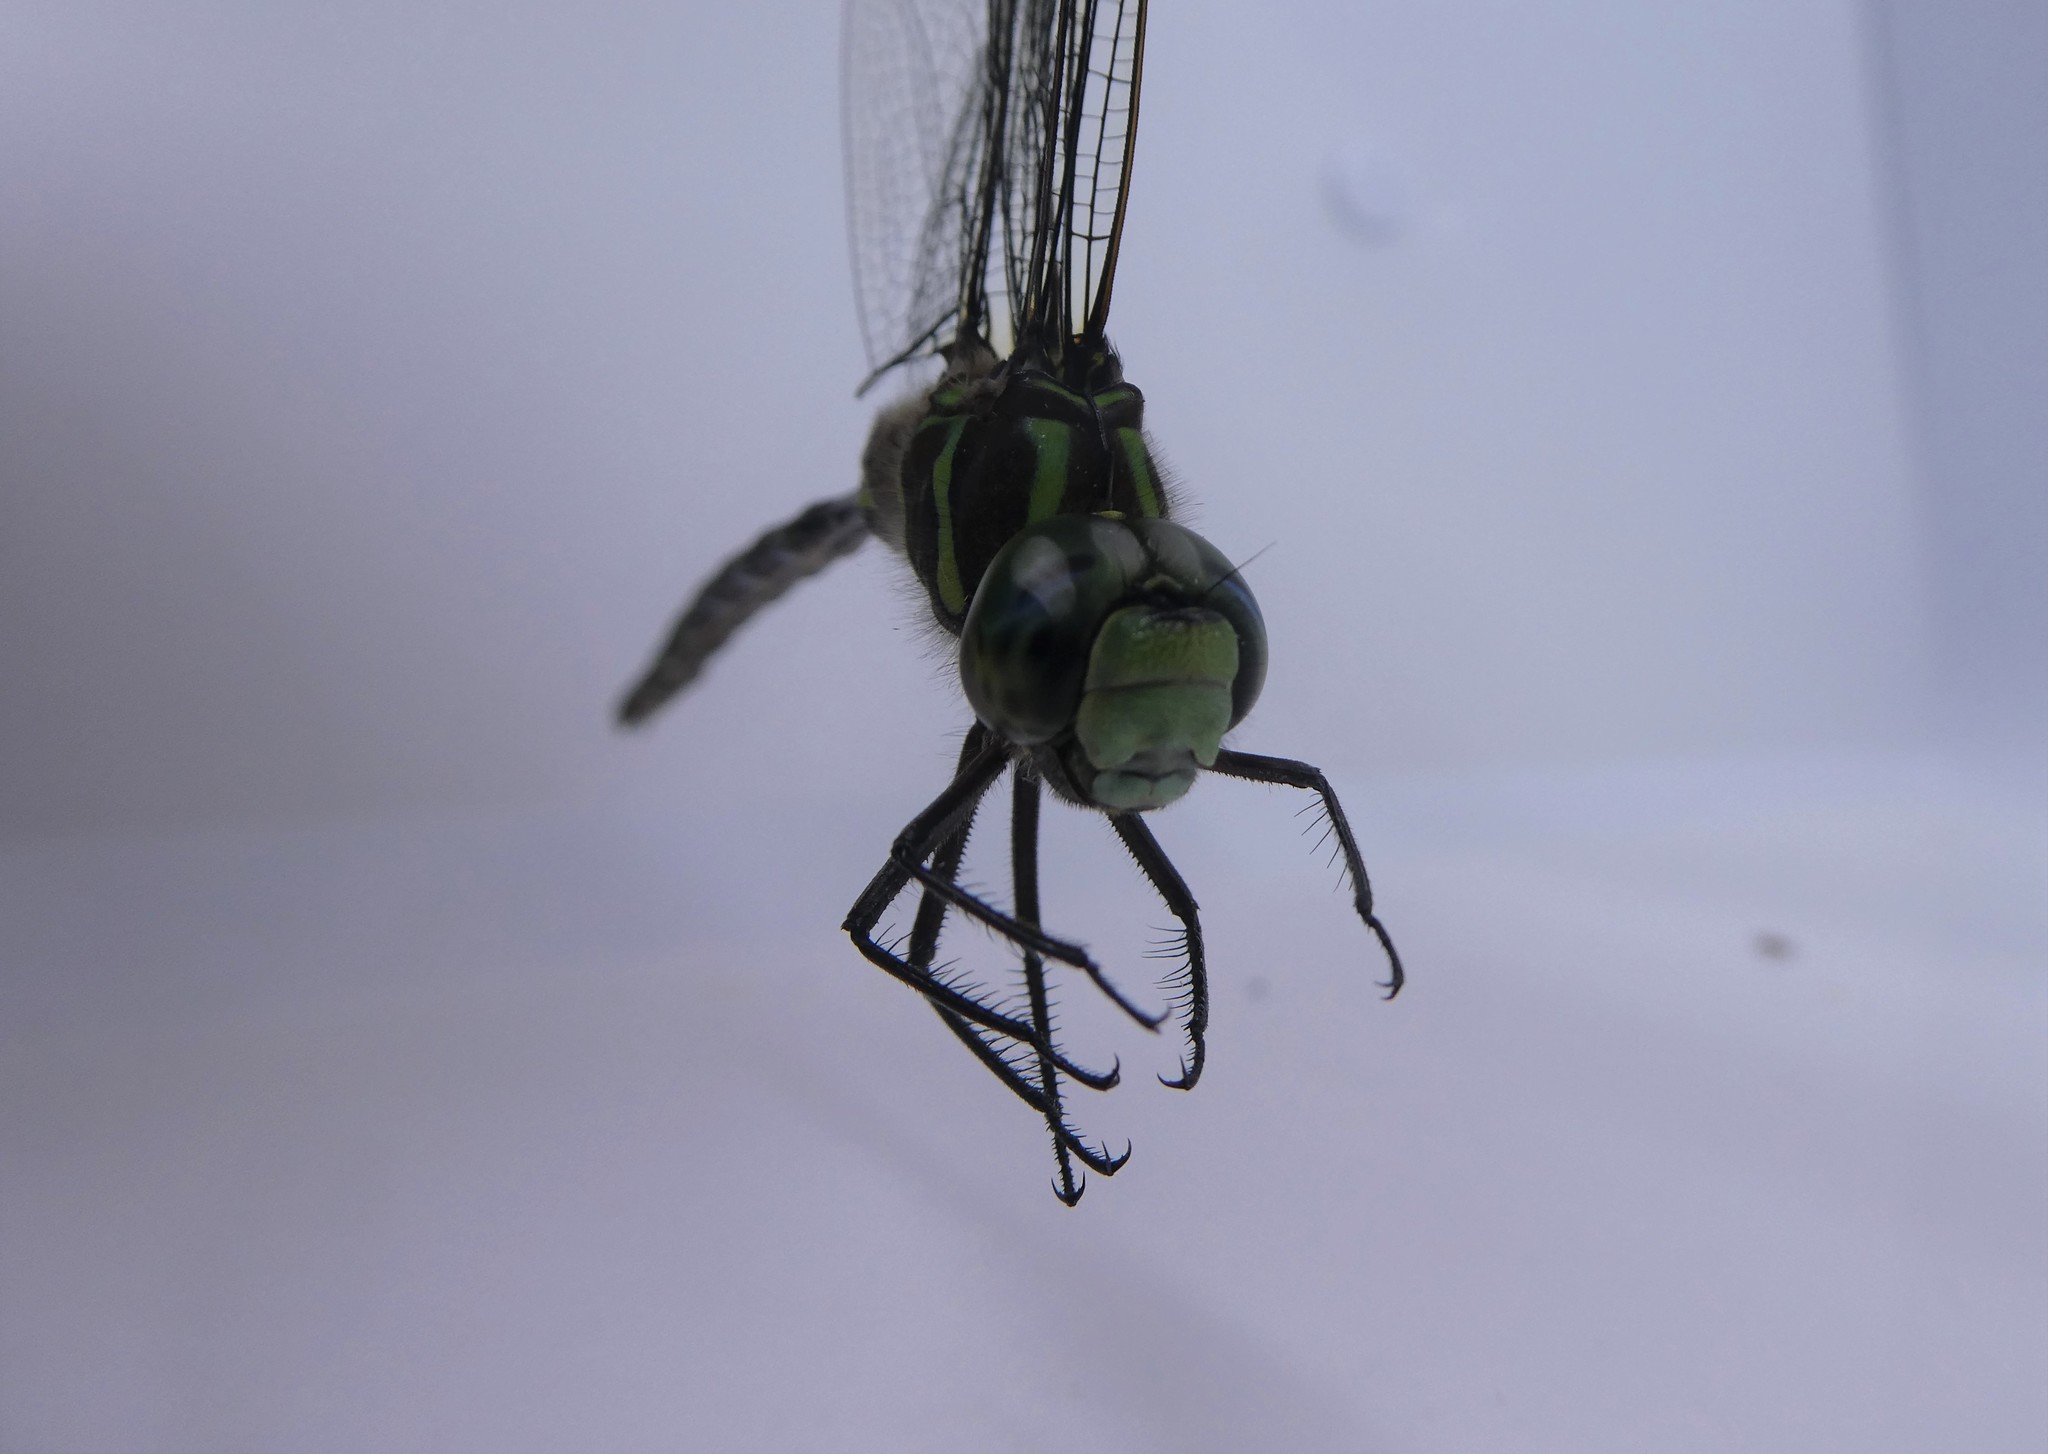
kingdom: Animalia
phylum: Arthropoda
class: Insecta
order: Odonata
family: Aeshnidae
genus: Aeshna
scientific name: Aeshna umbrosa
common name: Shadow darner
